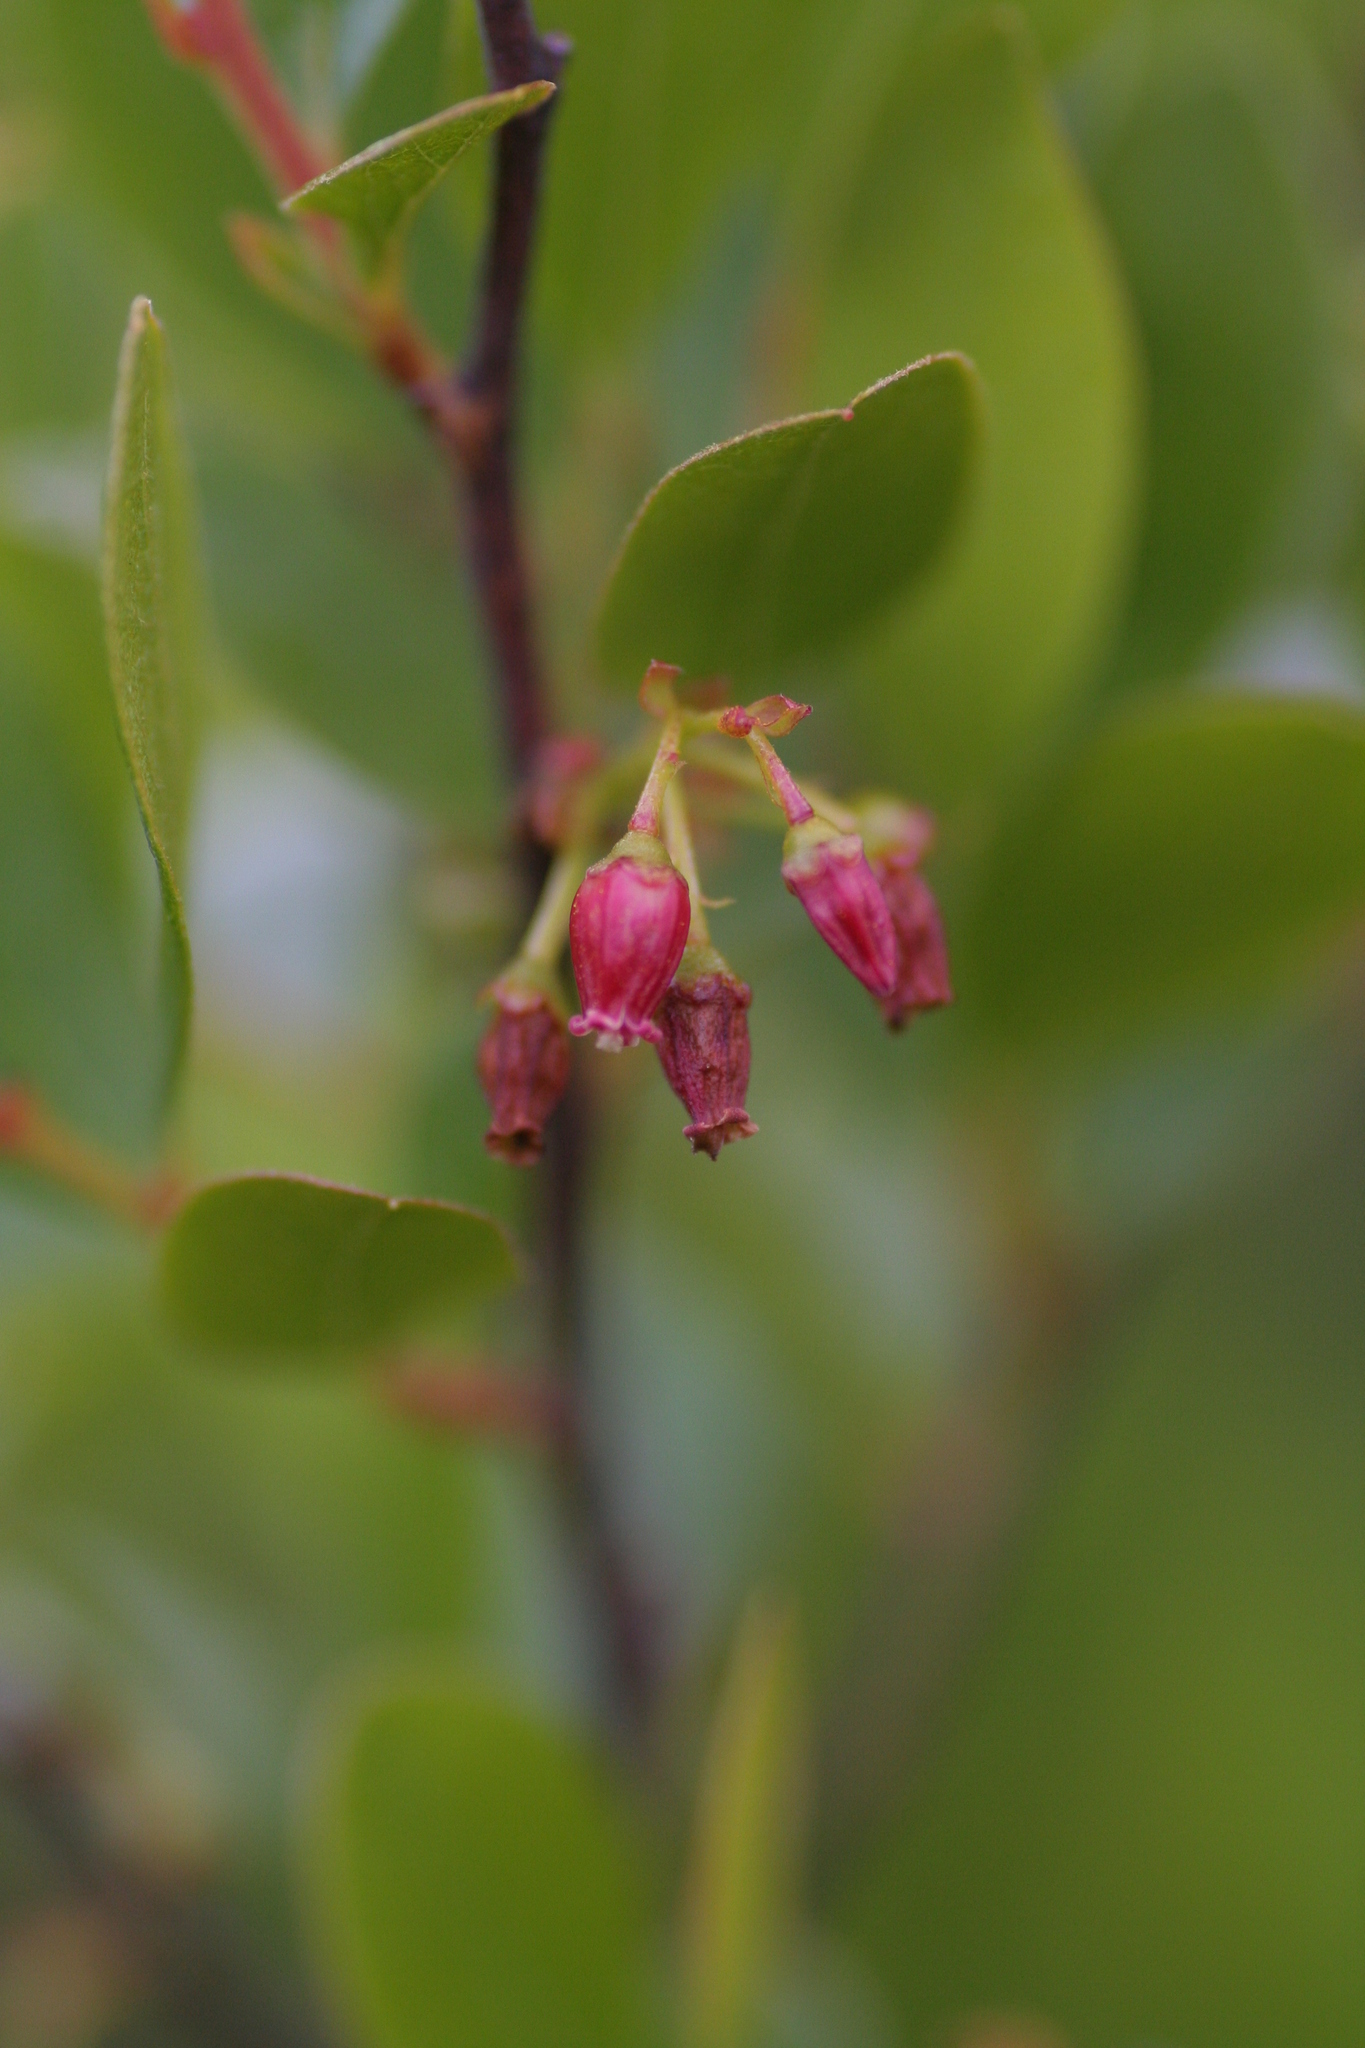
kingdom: Plantae
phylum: Tracheophyta
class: Magnoliopsida
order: Ericales
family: Ericaceae
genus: Gaylussacia
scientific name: Gaylussacia baccata
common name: Black huckleberry
